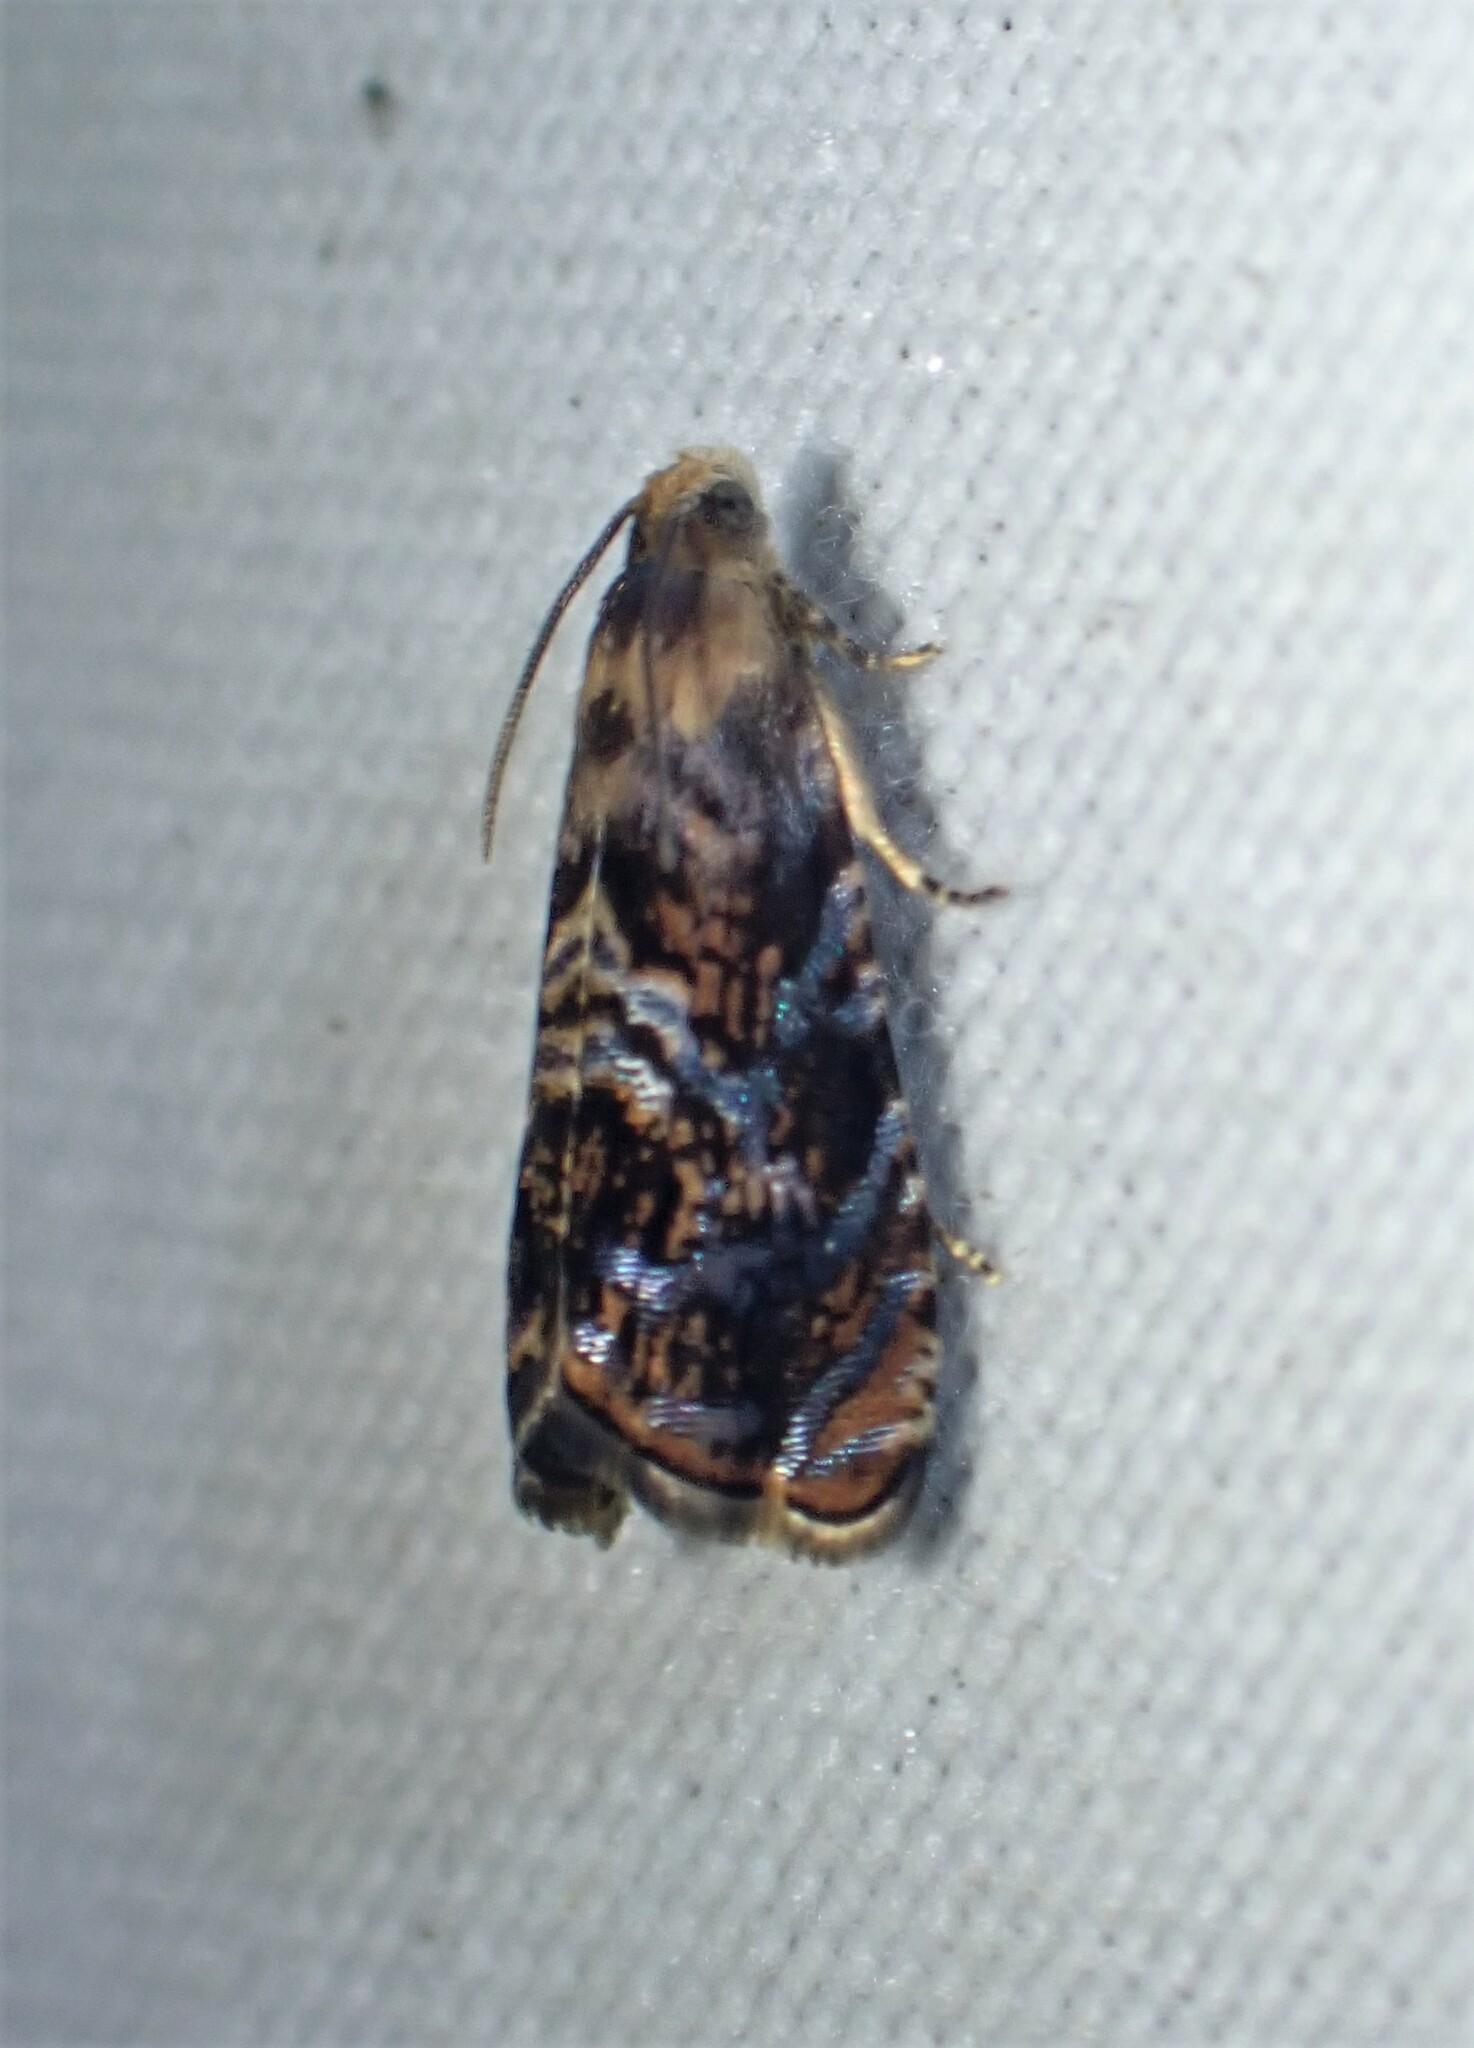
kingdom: Animalia
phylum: Arthropoda
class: Insecta
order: Lepidoptera
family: Noctuidae
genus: Aspila
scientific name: Aspila
